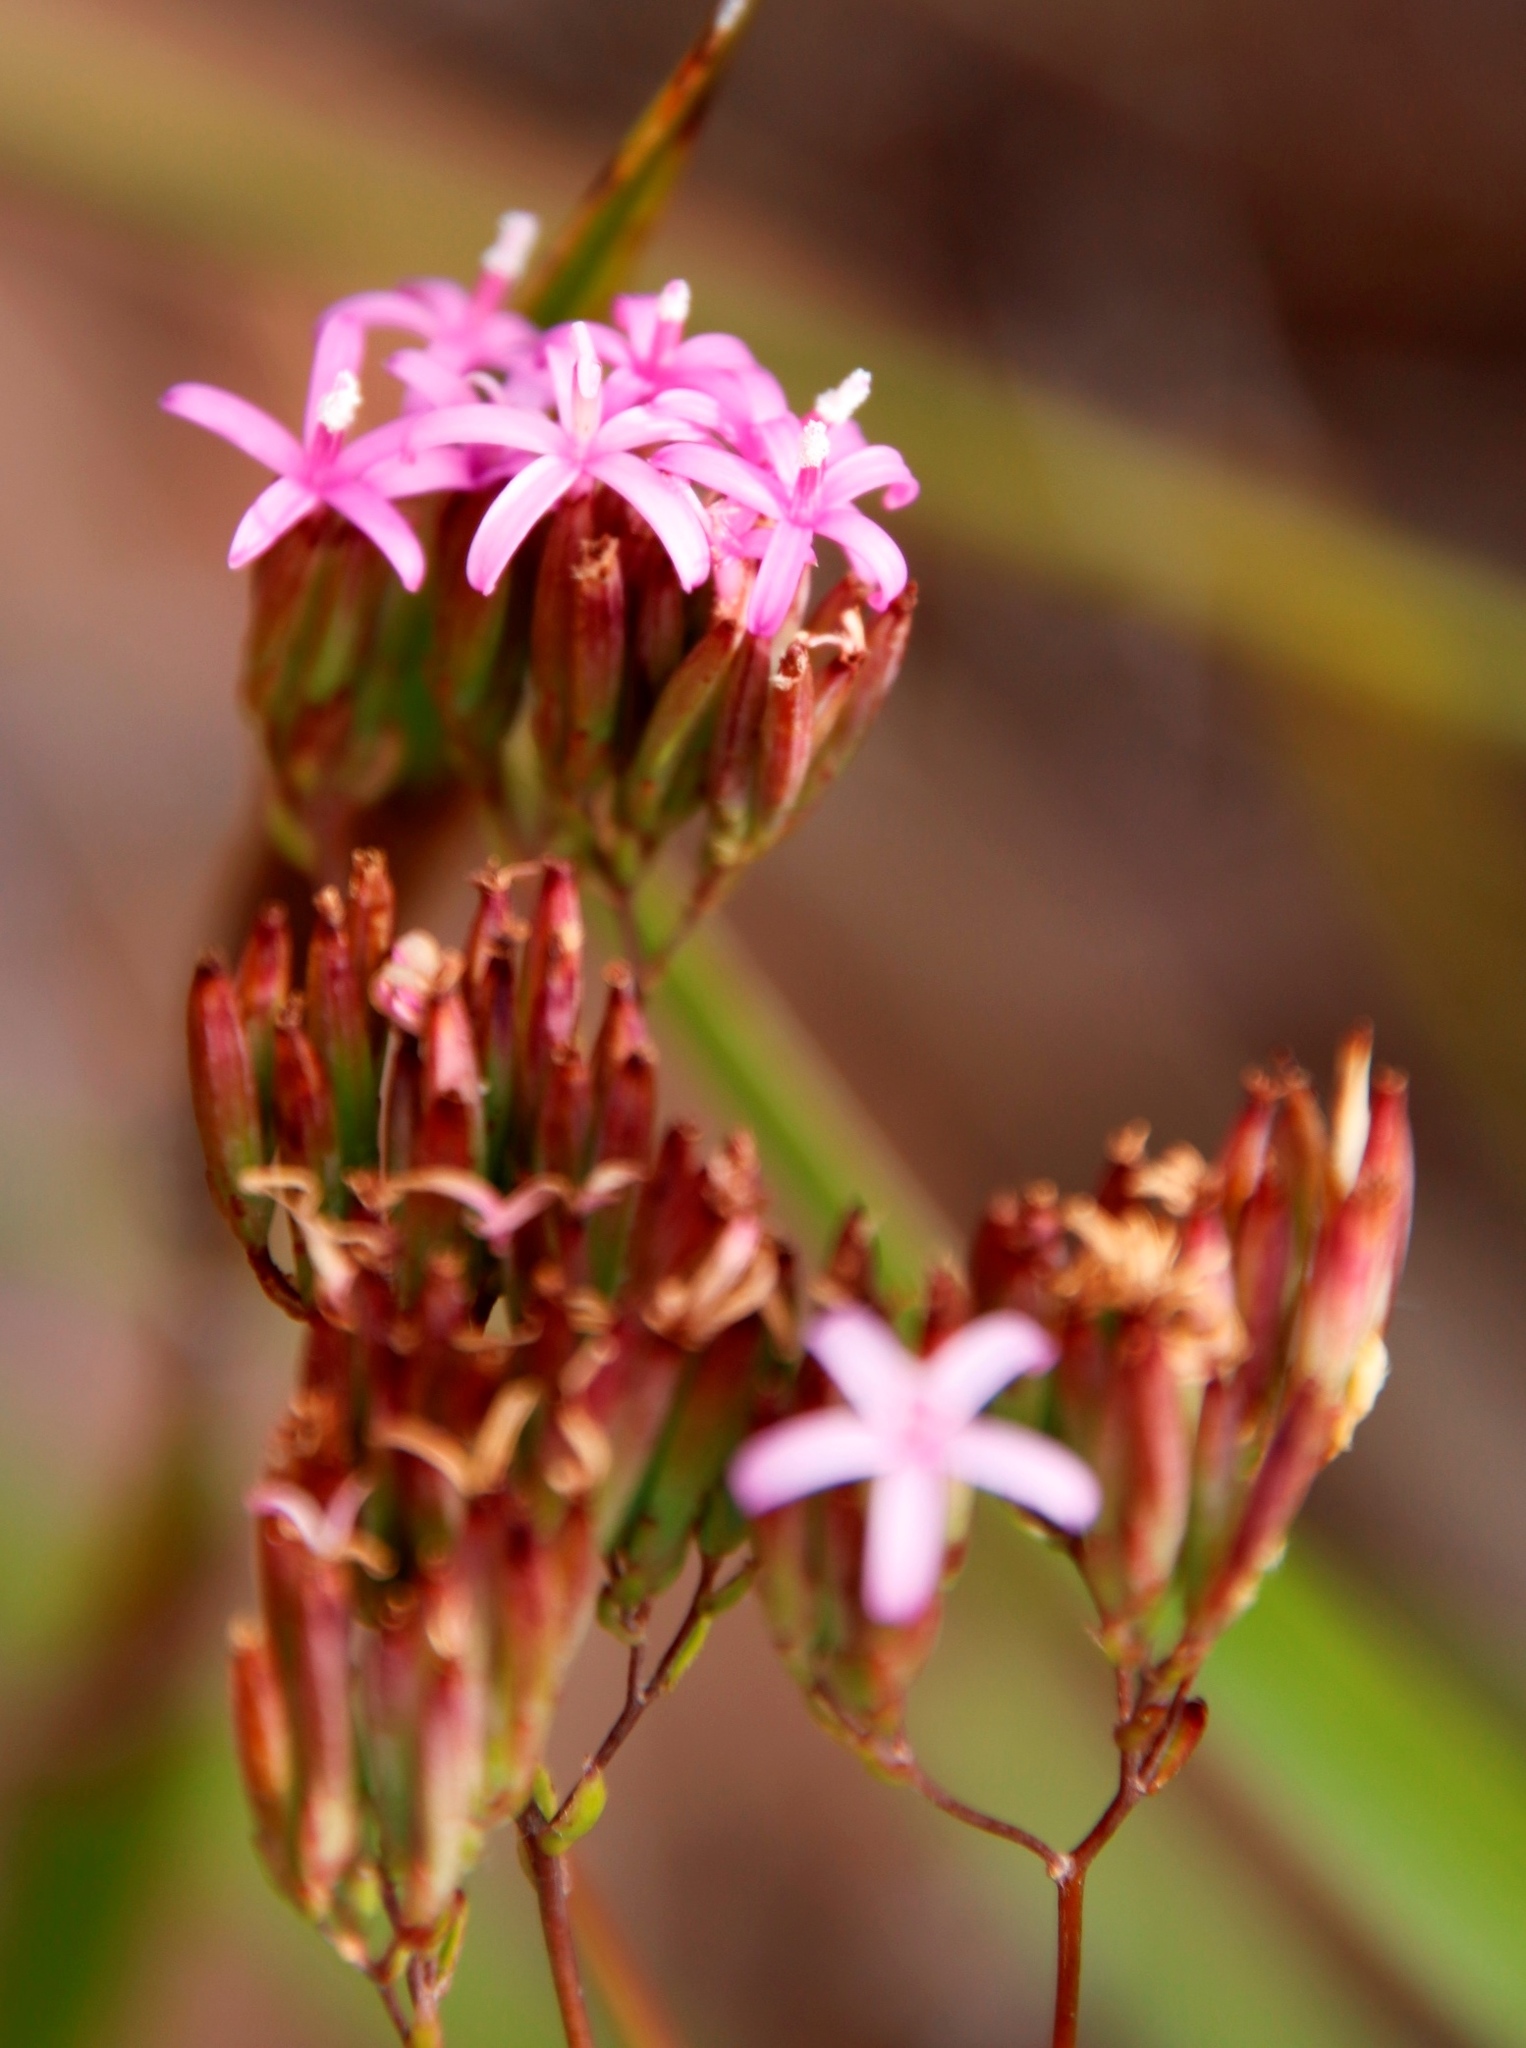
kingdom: Plantae
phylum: Tracheophyta
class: Magnoliopsida
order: Asterales
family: Asteraceae
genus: Corymbium
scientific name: Corymbium glabrum
